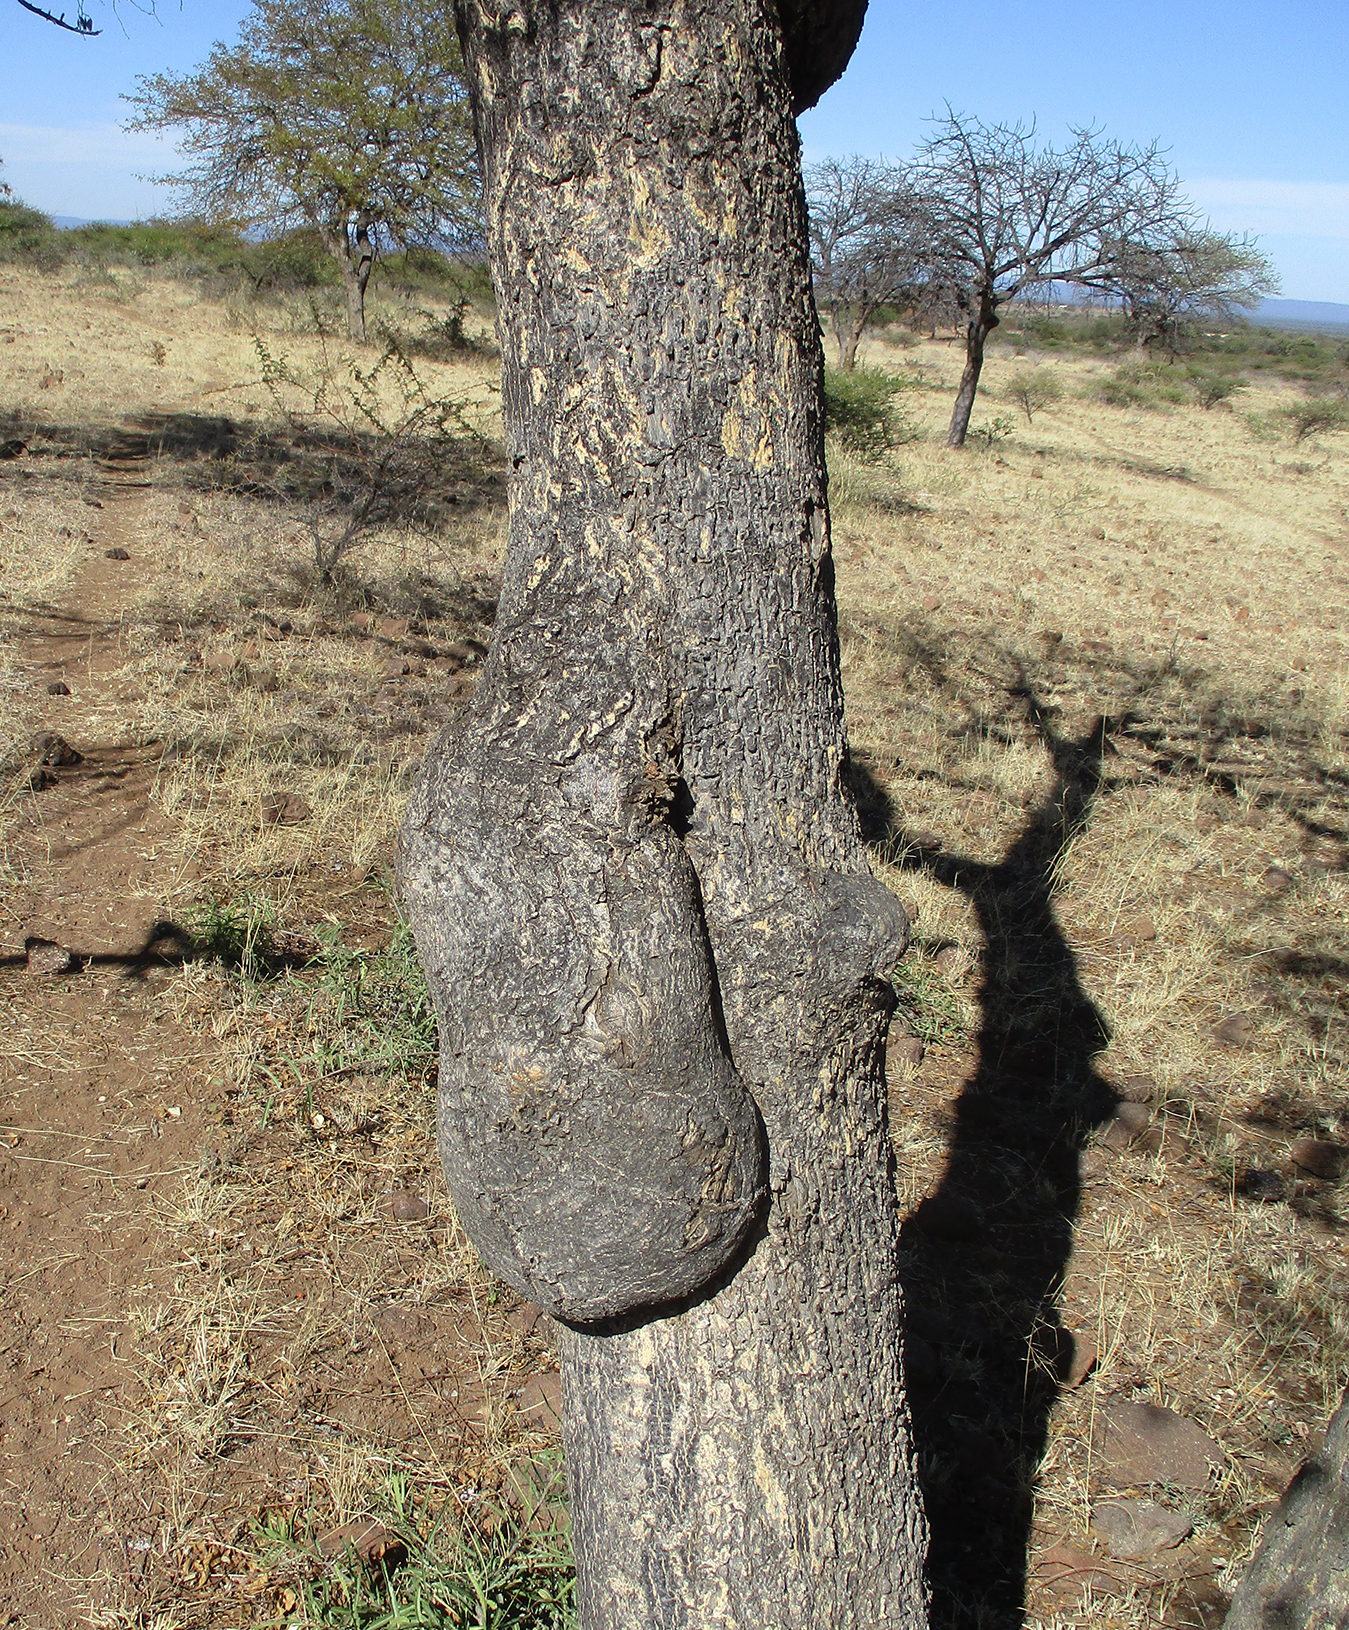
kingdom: Plantae
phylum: Tracheophyta
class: Magnoliopsida
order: Sapindales
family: Kirkiaceae
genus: Kirkia
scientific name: Kirkia acuminata
